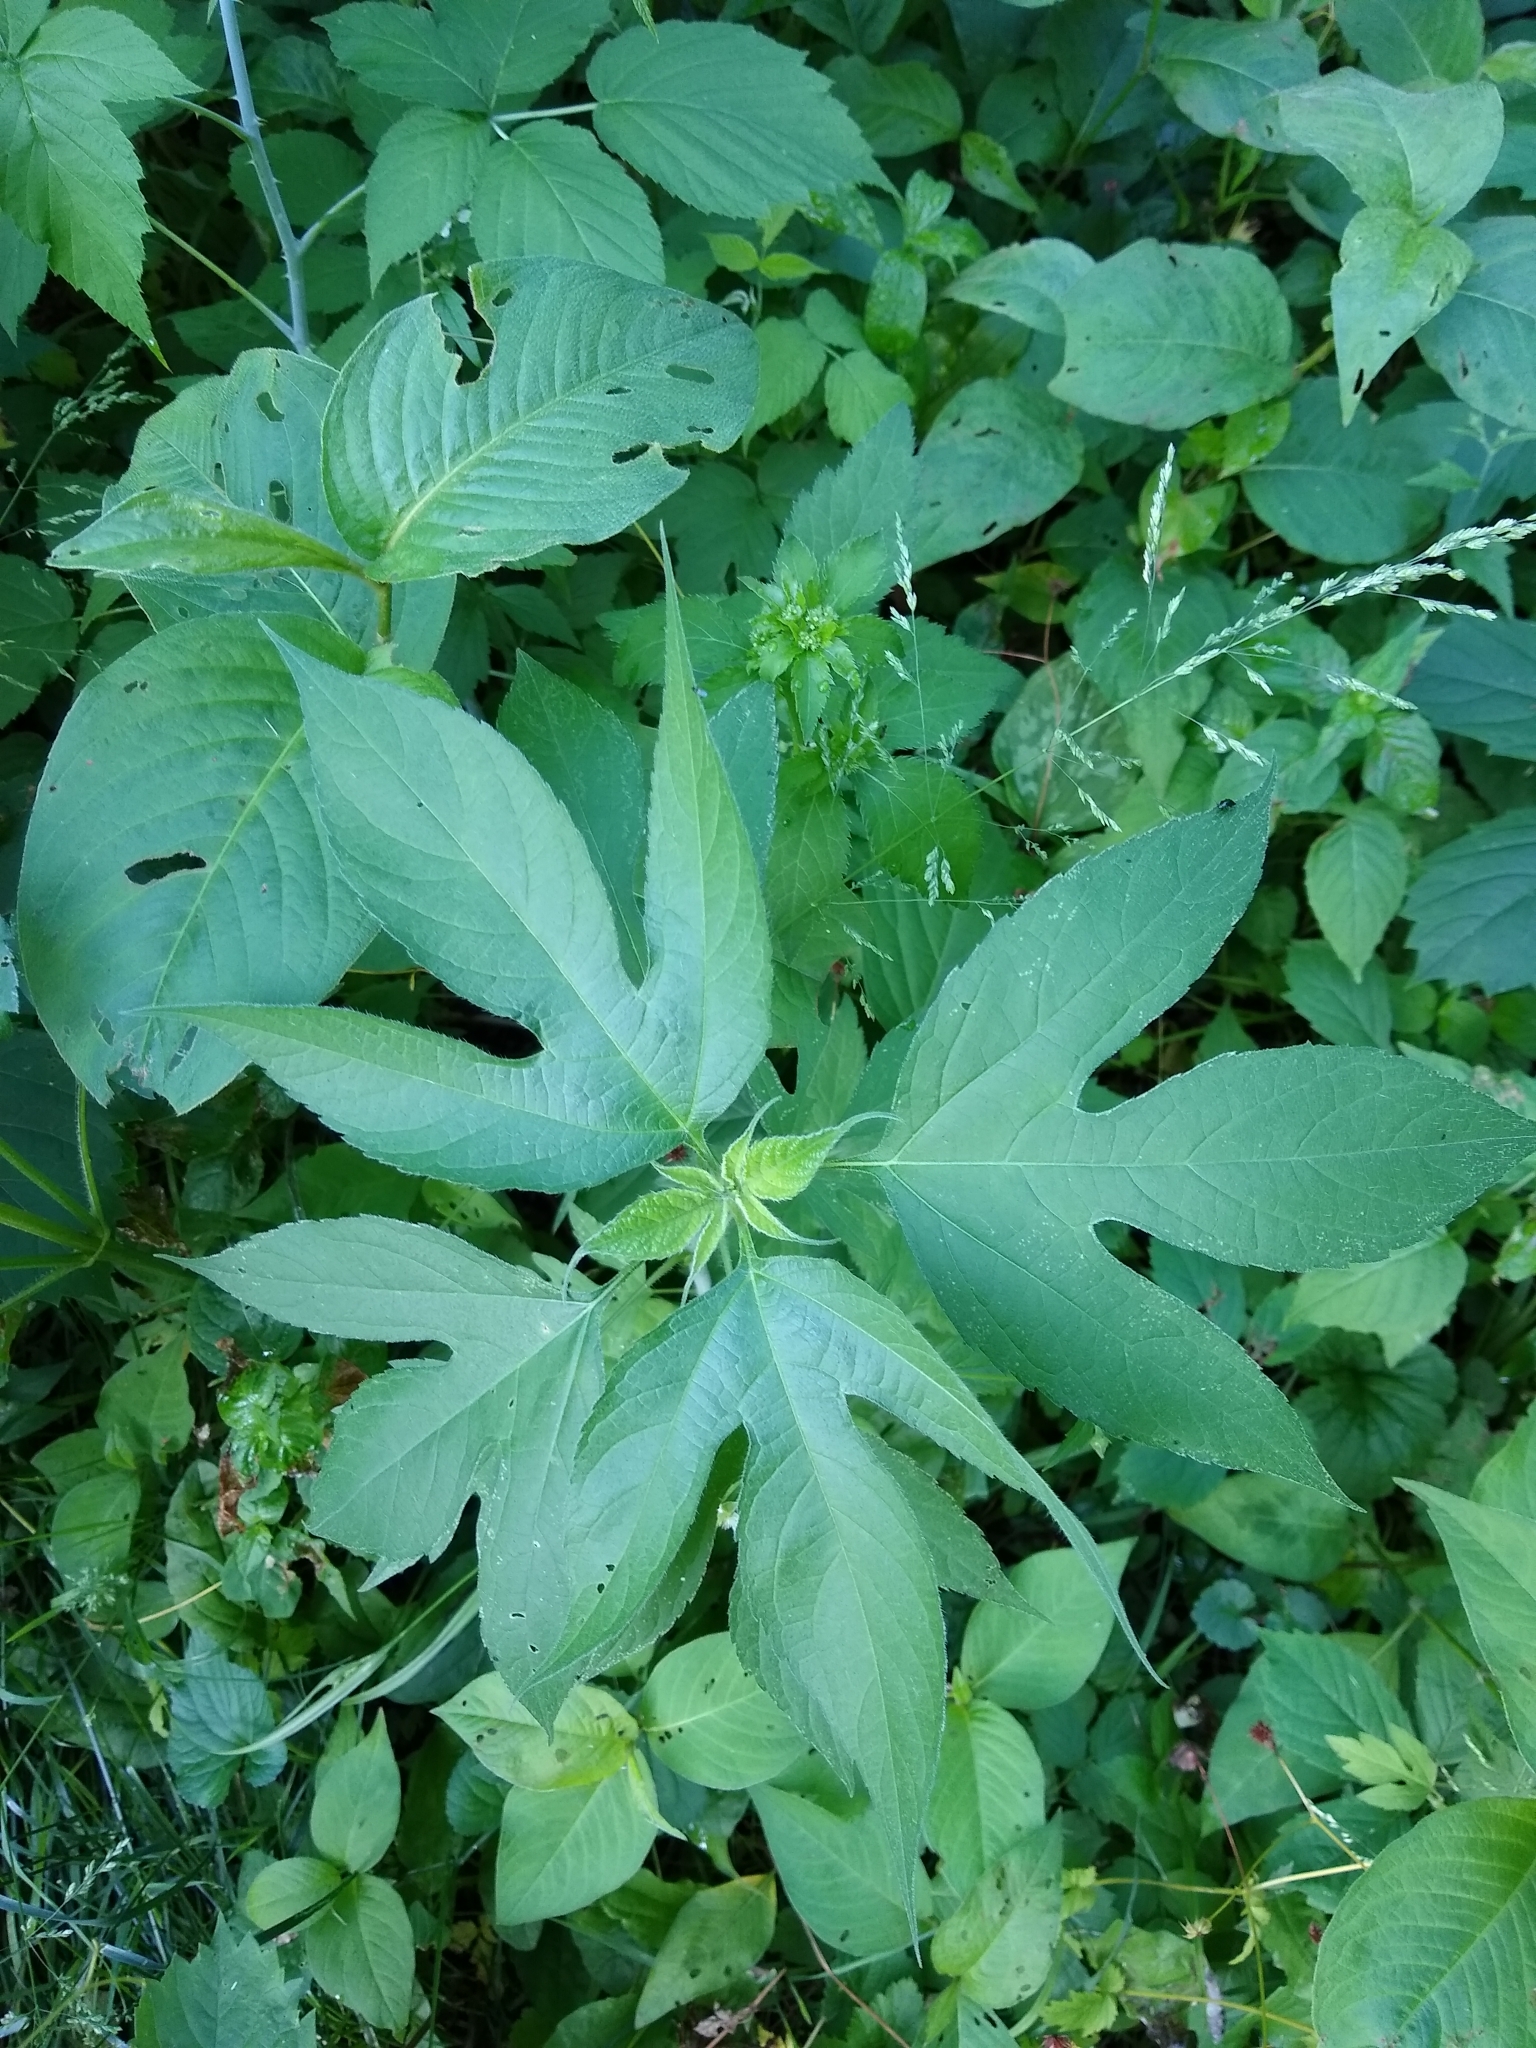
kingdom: Plantae
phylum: Tracheophyta
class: Magnoliopsida
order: Asterales
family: Asteraceae
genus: Ambrosia
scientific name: Ambrosia trifida
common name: Giant ragweed
